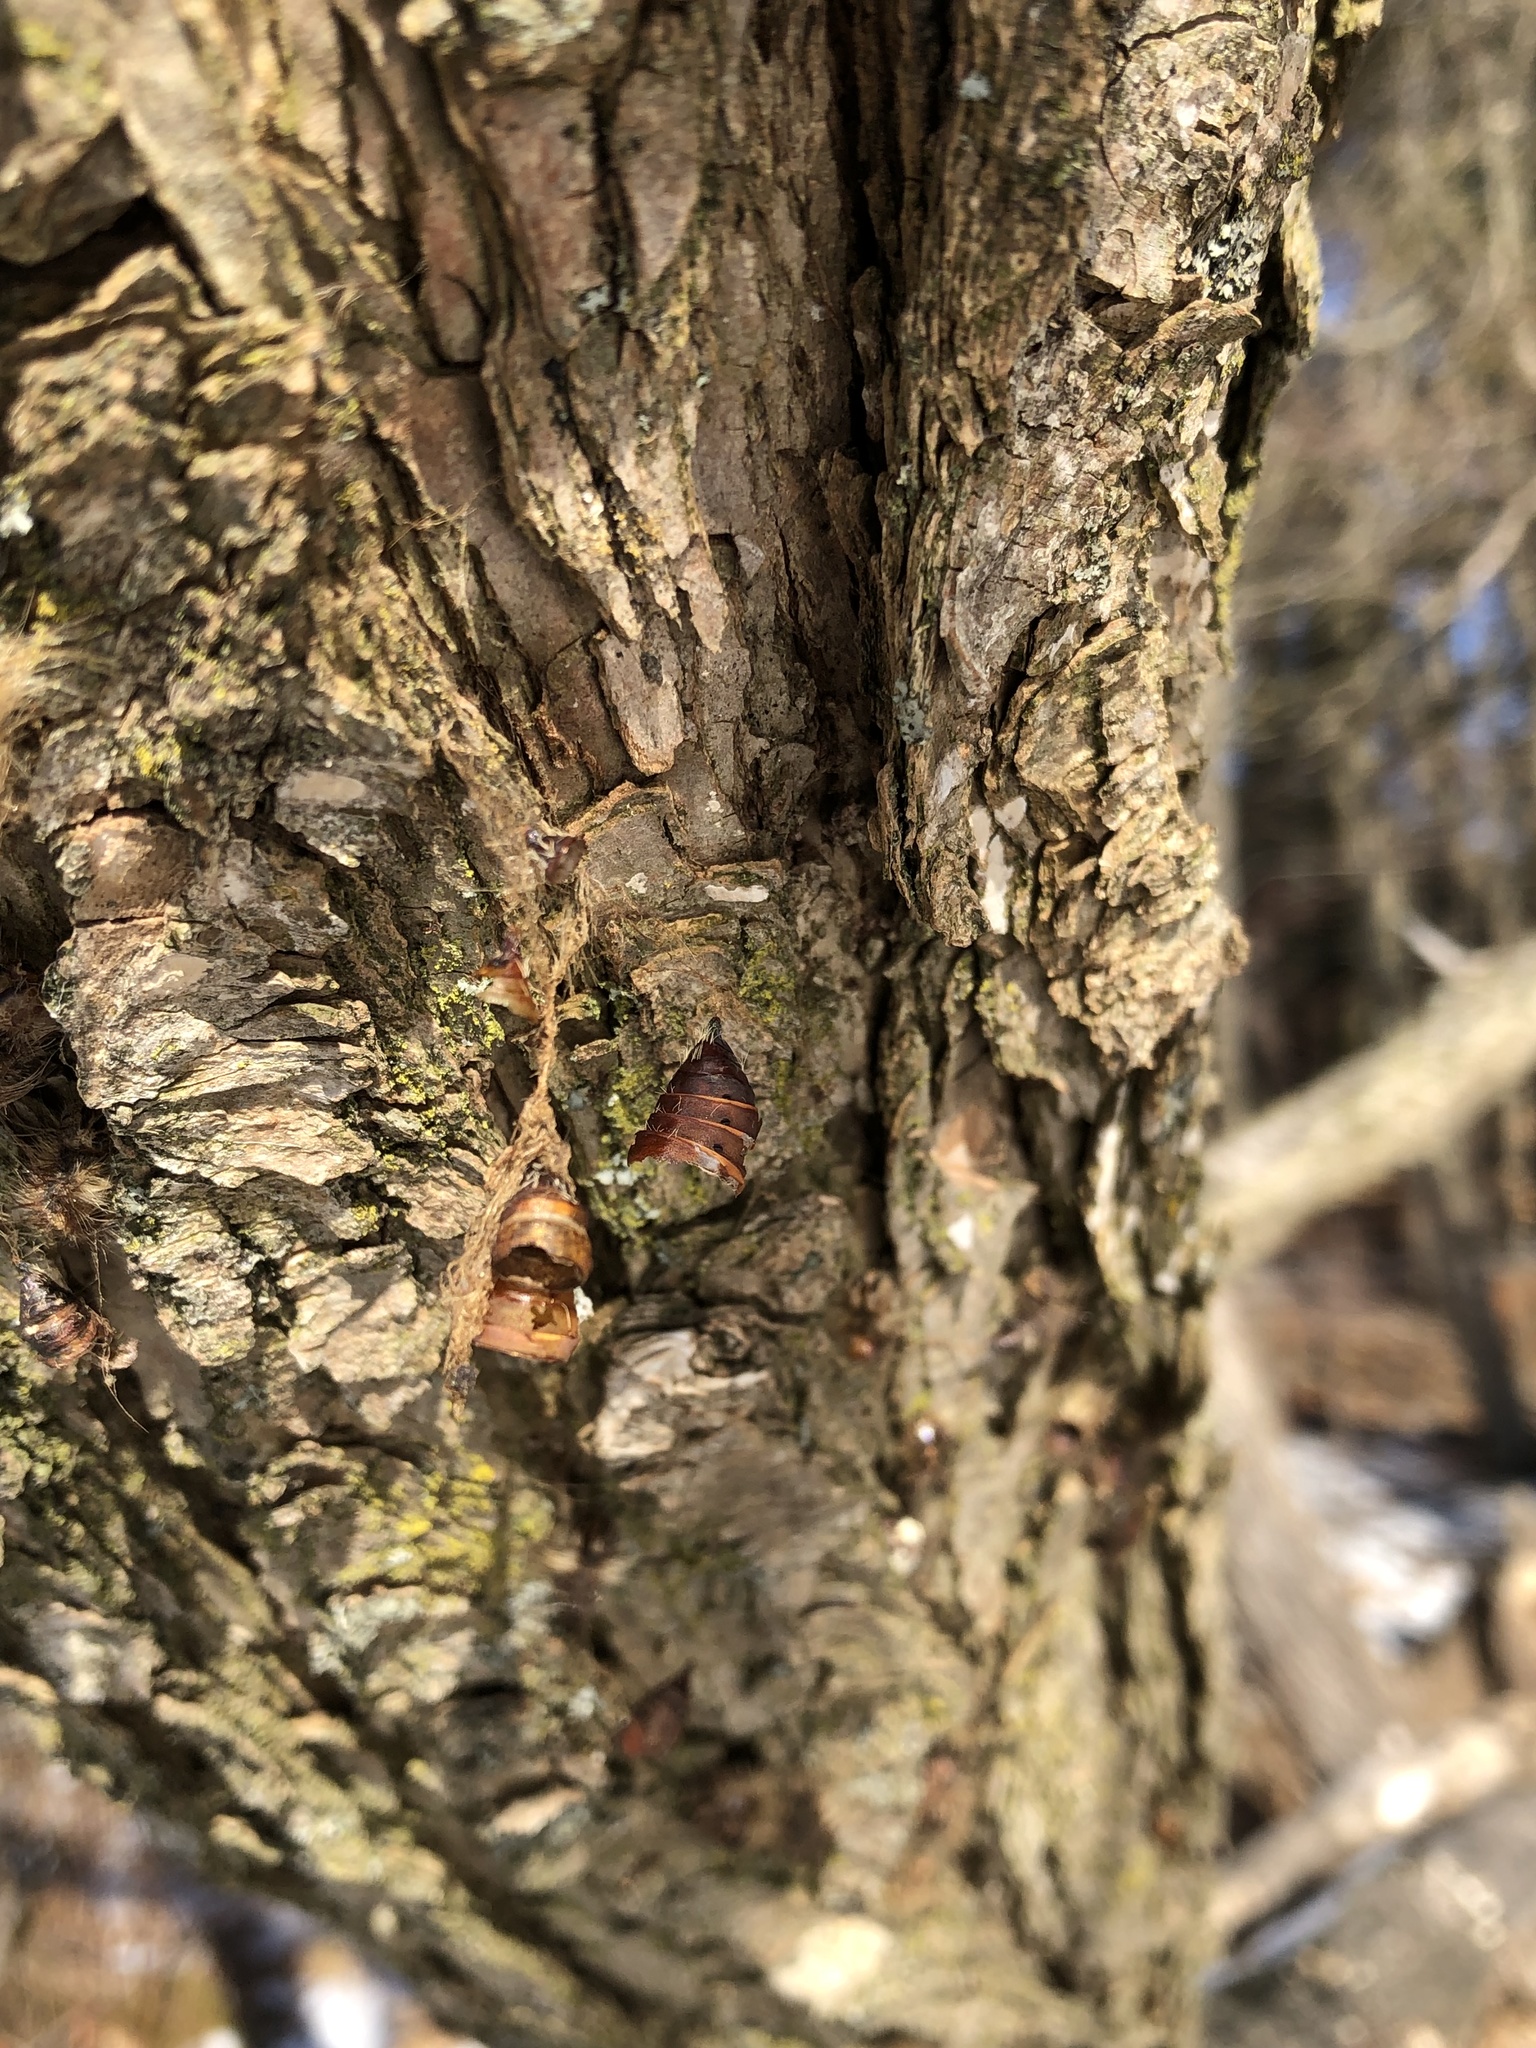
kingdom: Animalia
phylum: Arthropoda
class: Insecta
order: Lepidoptera
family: Erebidae
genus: Lymantria
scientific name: Lymantria dispar
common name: Gypsy moth
